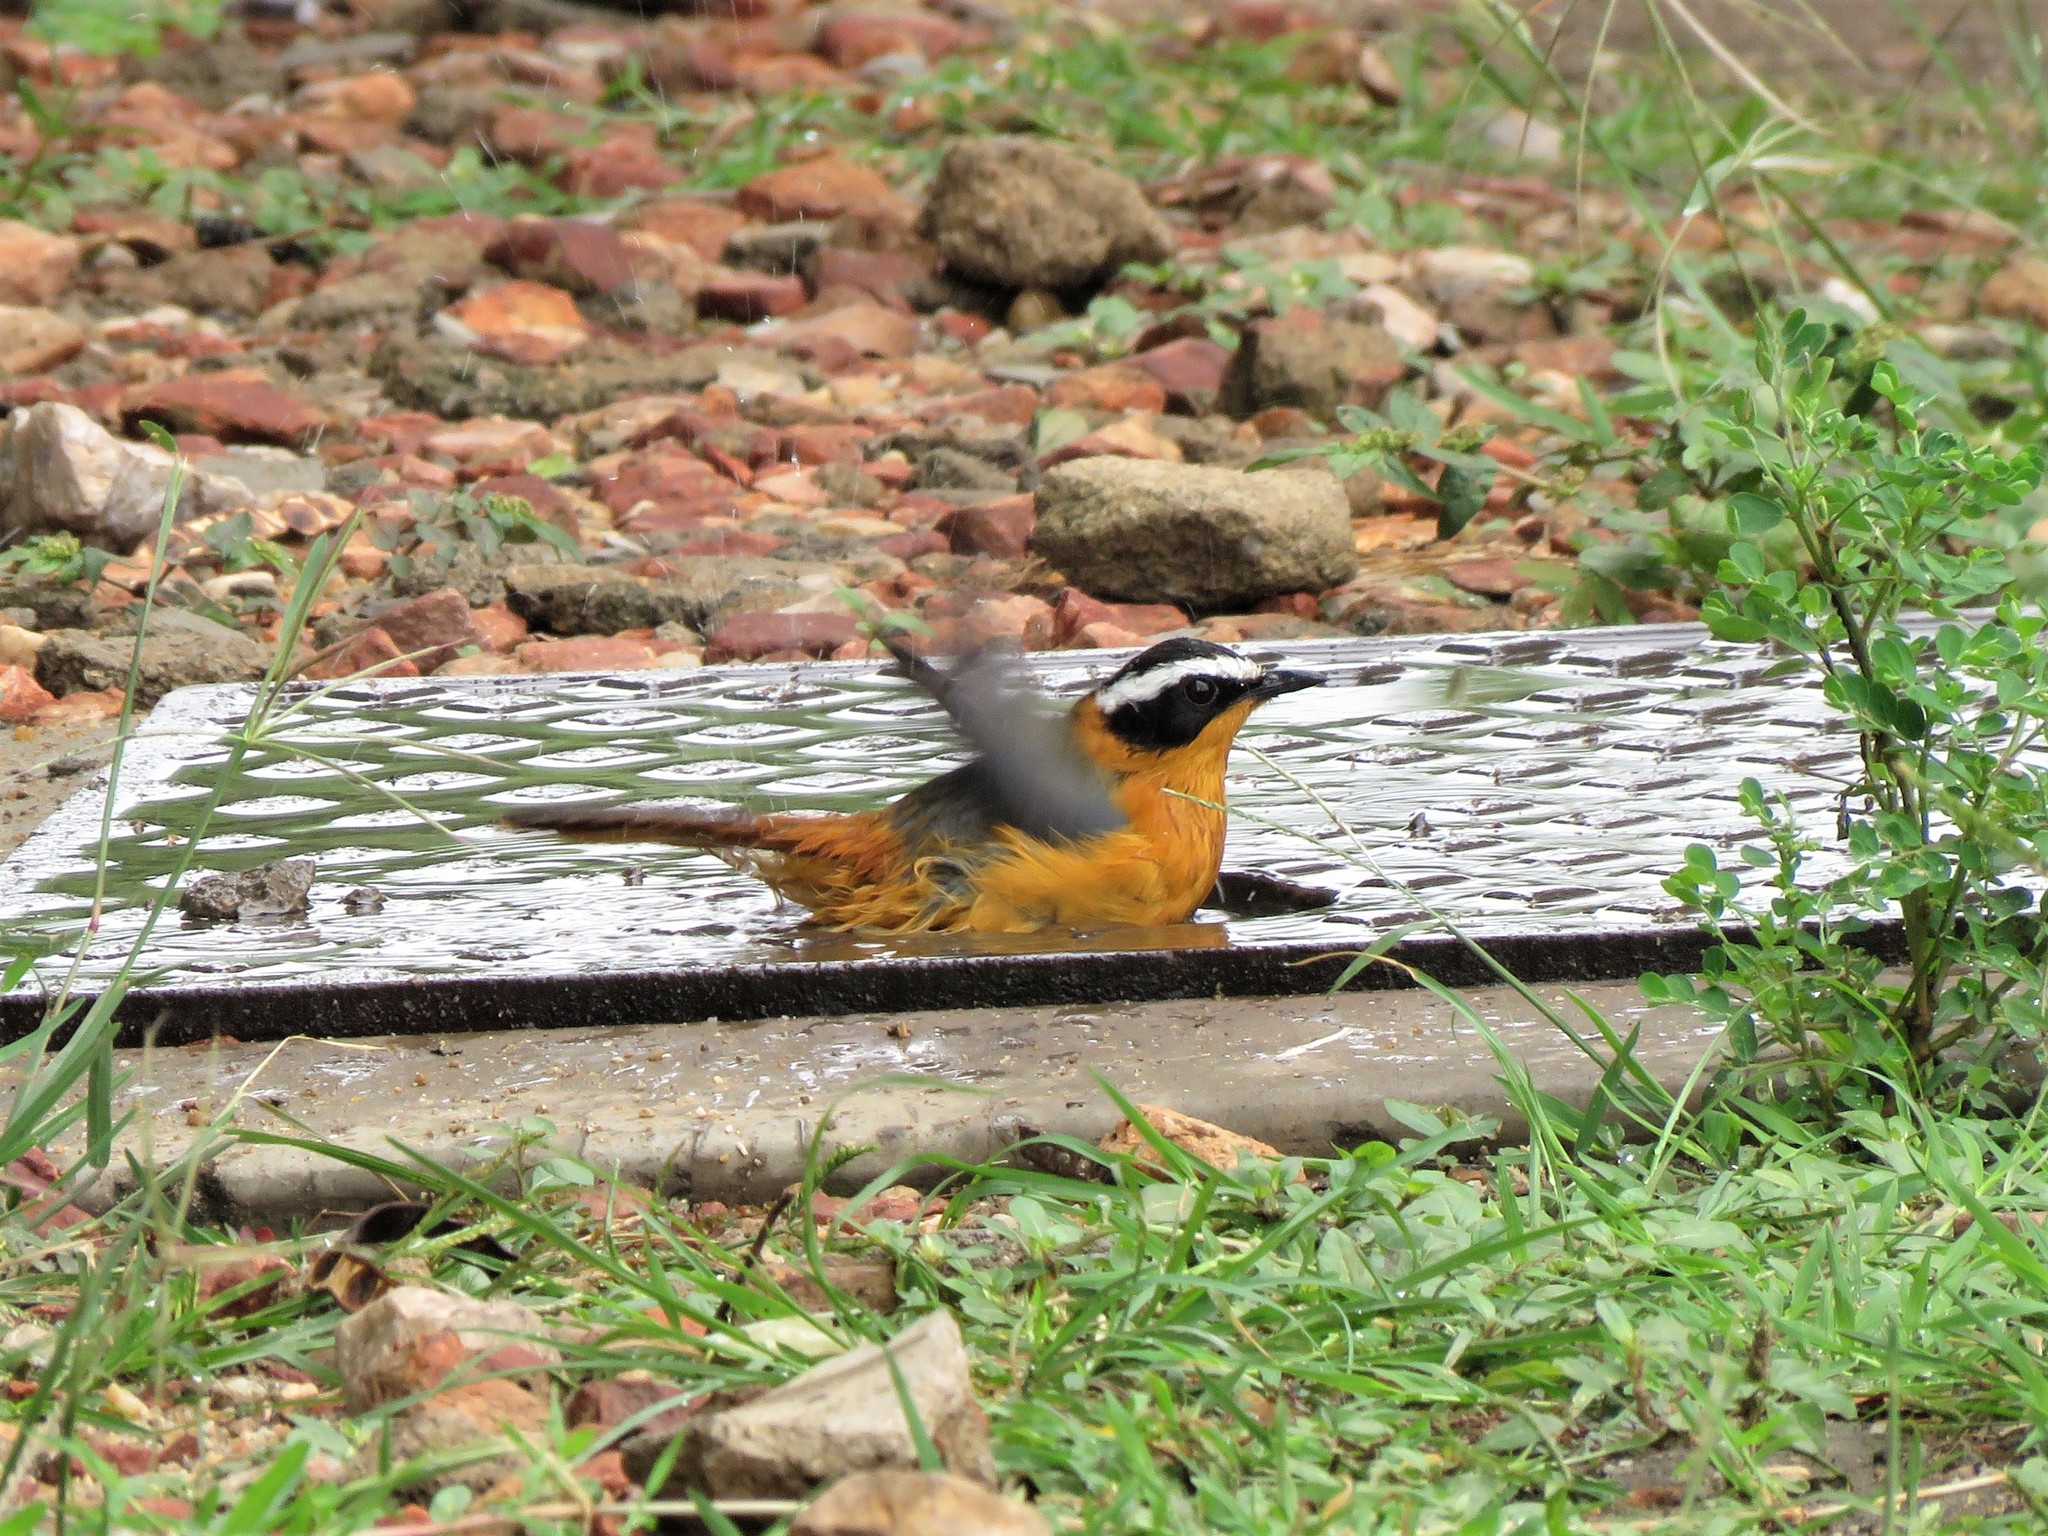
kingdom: Animalia
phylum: Chordata
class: Aves
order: Passeriformes
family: Muscicapidae
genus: Cossypha
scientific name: Cossypha heuglini
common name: White-browed robin-chat
